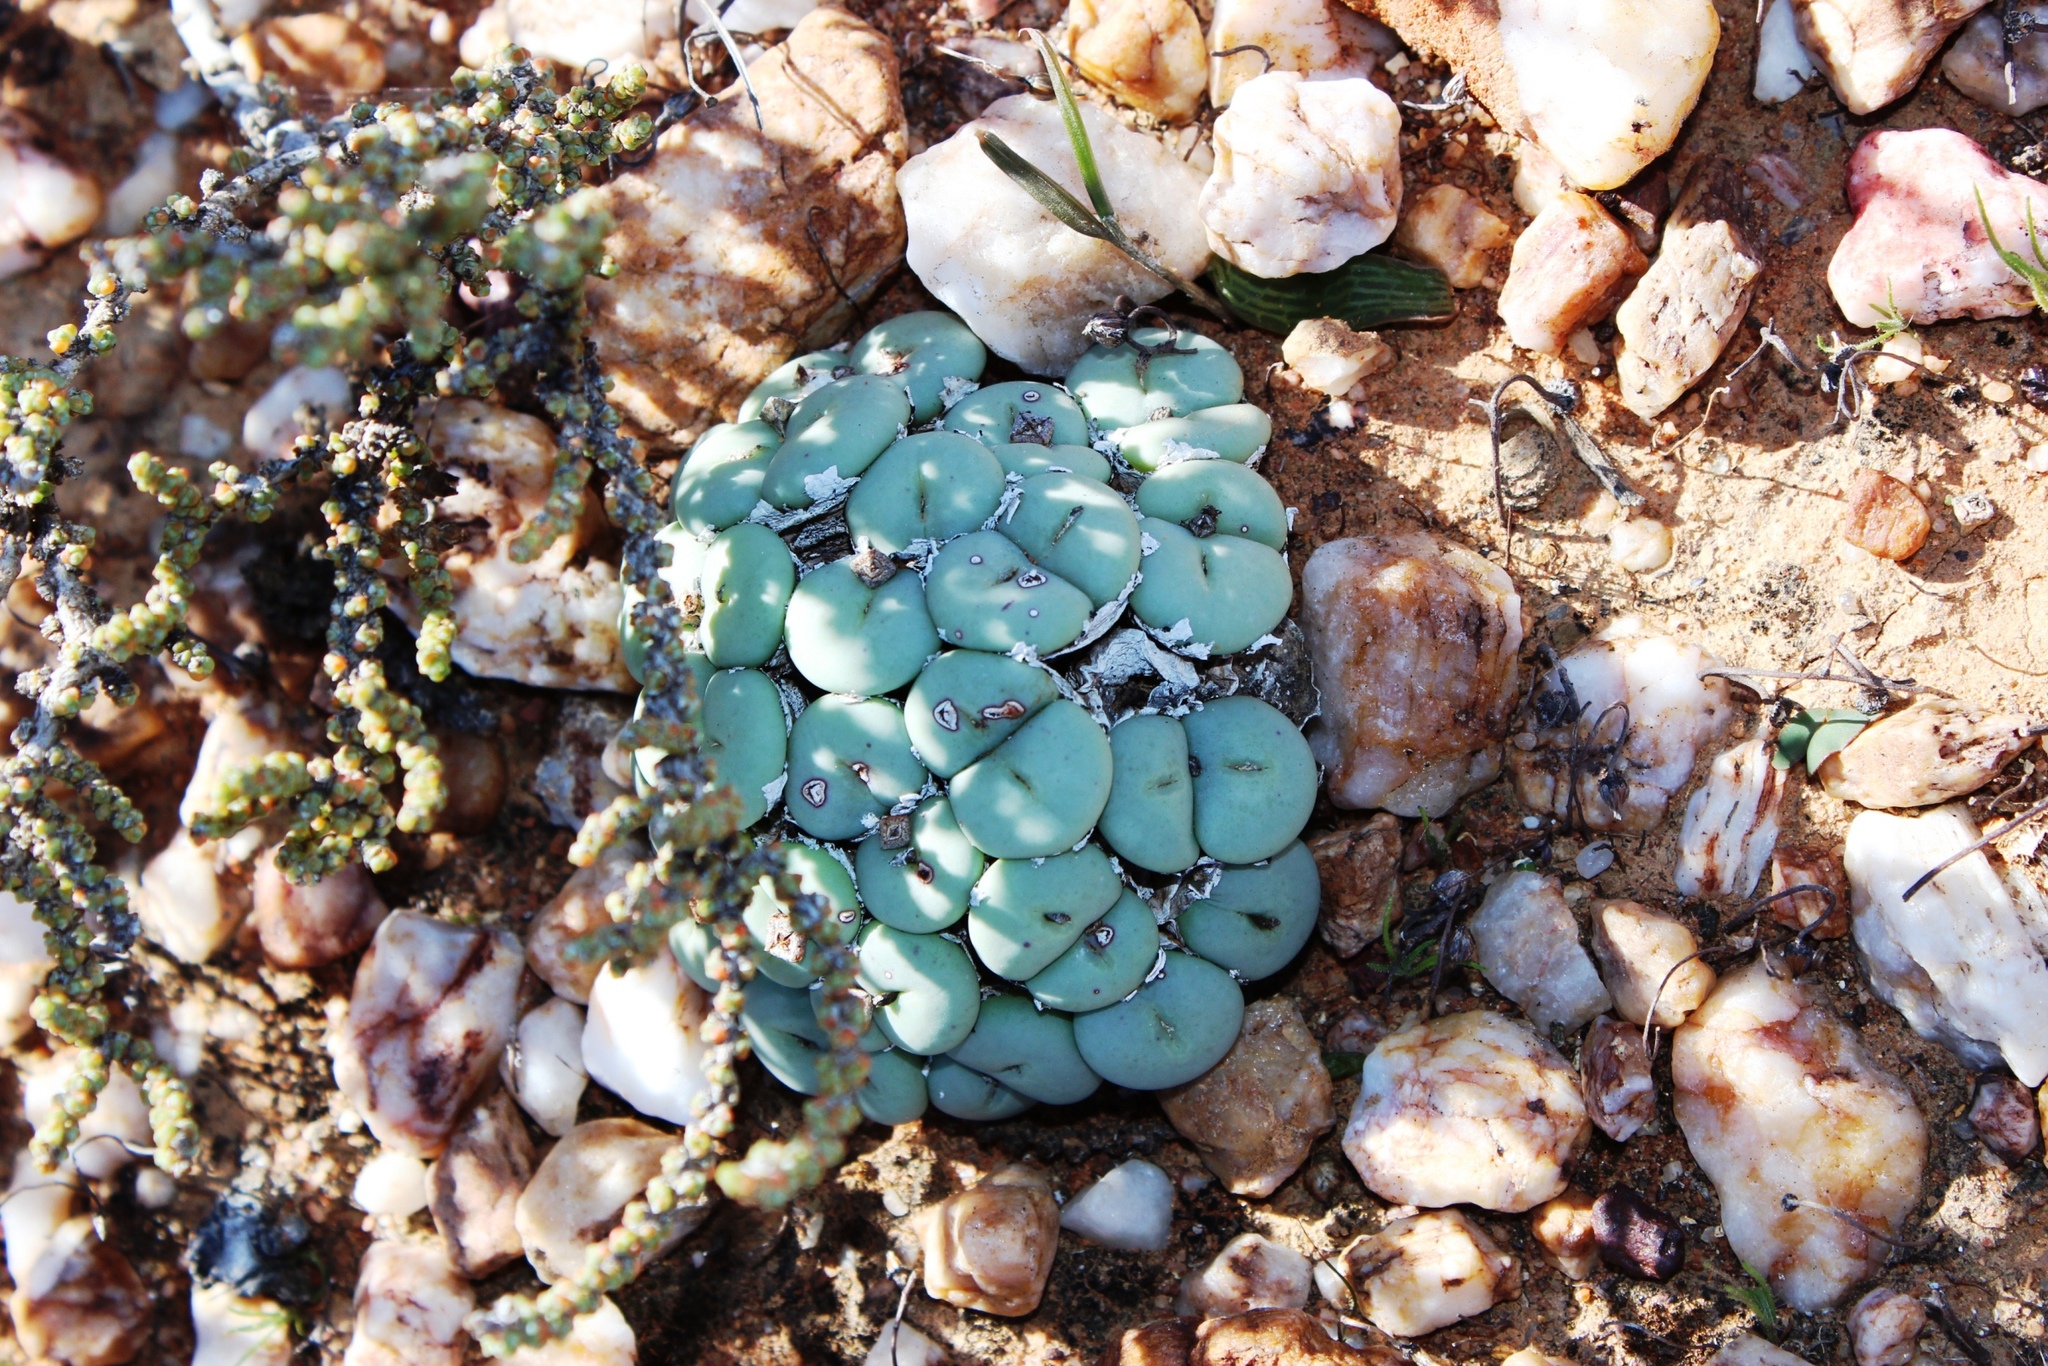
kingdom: Plantae
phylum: Tracheophyta
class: Magnoliopsida
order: Caryophyllales
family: Aizoaceae
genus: Conophytum
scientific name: Conophytum minutum
